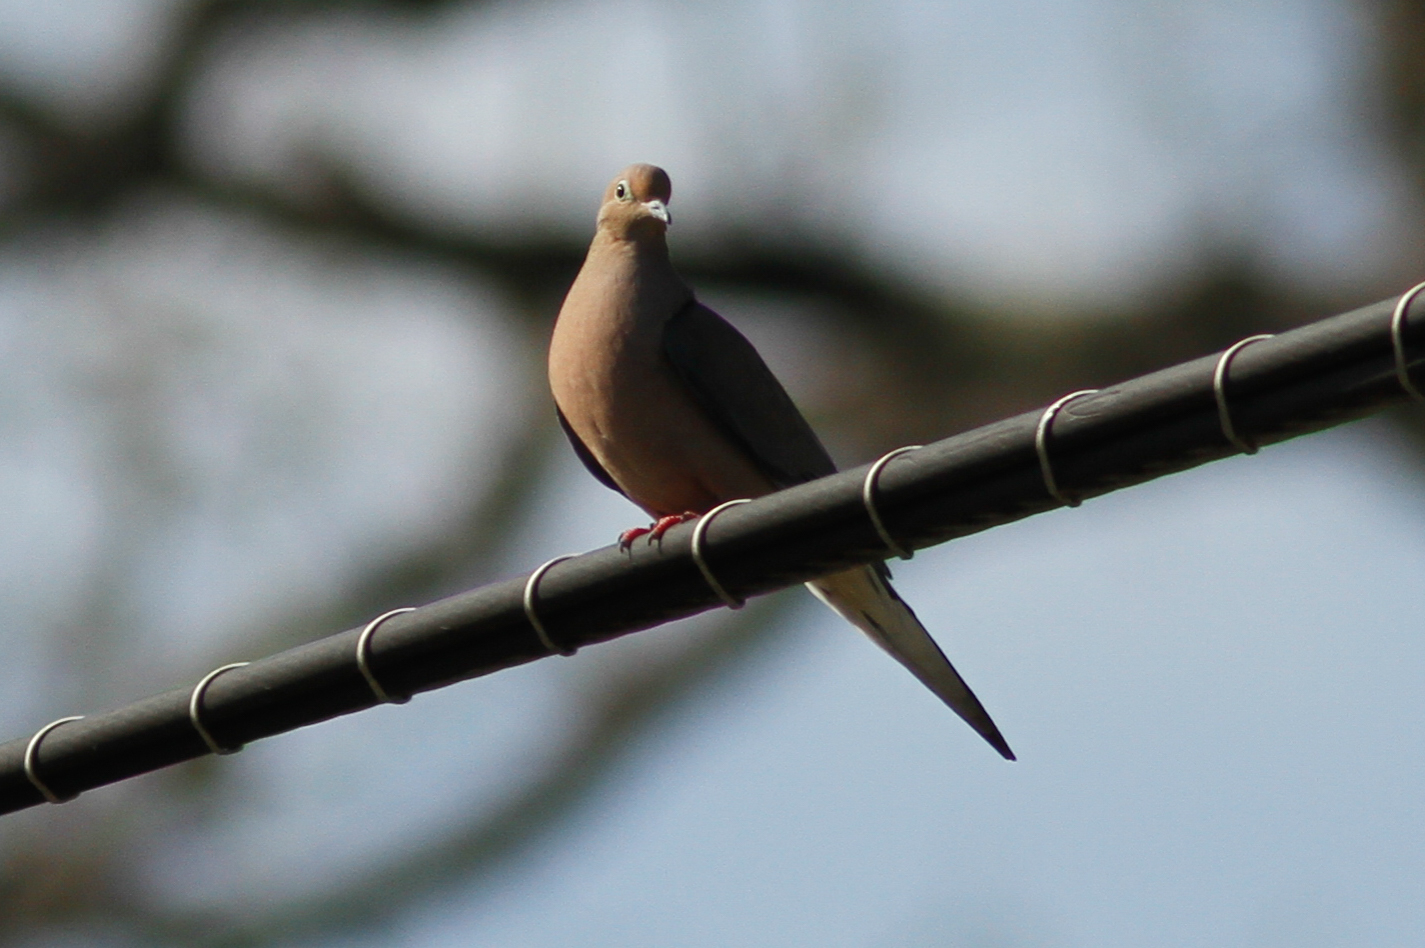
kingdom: Animalia
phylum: Chordata
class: Aves
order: Columbiformes
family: Columbidae
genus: Zenaida
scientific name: Zenaida macroura
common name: Mourning dove
